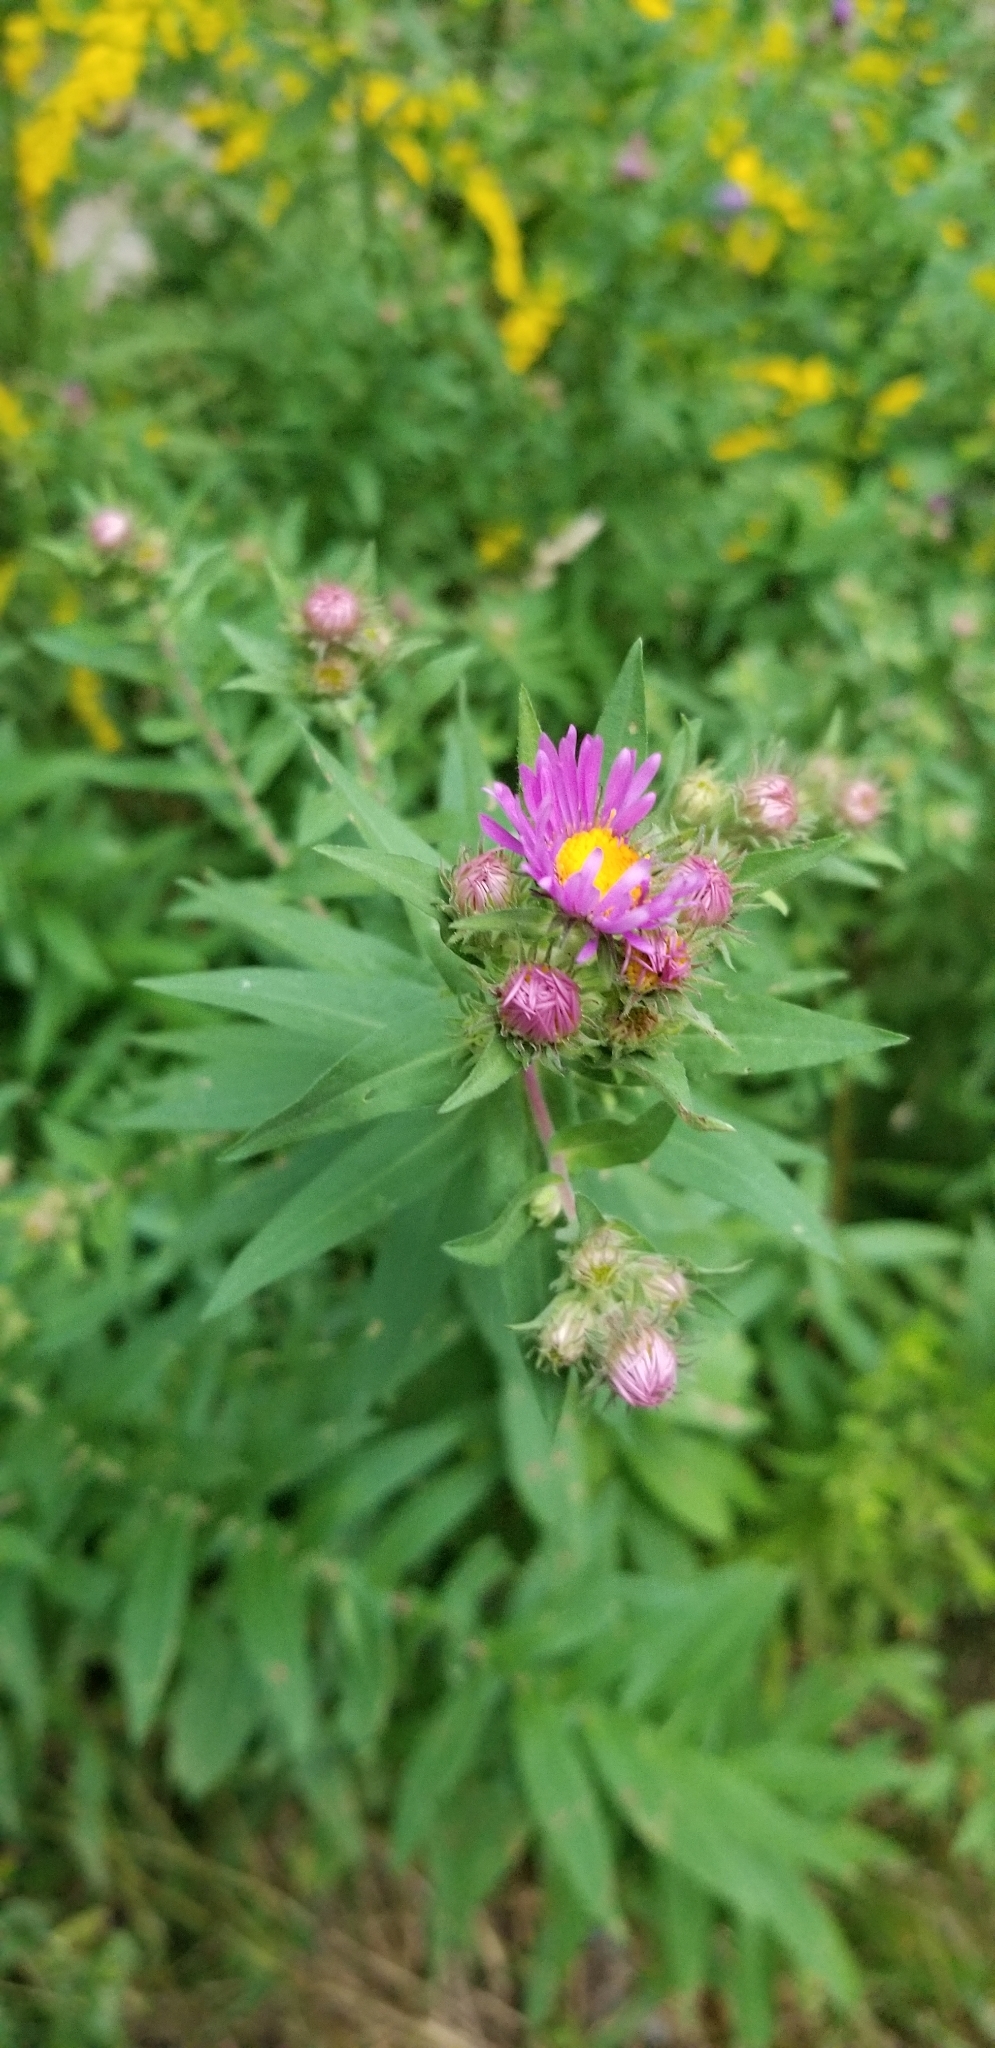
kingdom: Plantae
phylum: Tracheophyta
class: Magnoliopsida
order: Asterales
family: Asteraceae
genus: Symphyotrichum
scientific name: Symphyotrichum novae-angliae
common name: Michaelmas daisy
